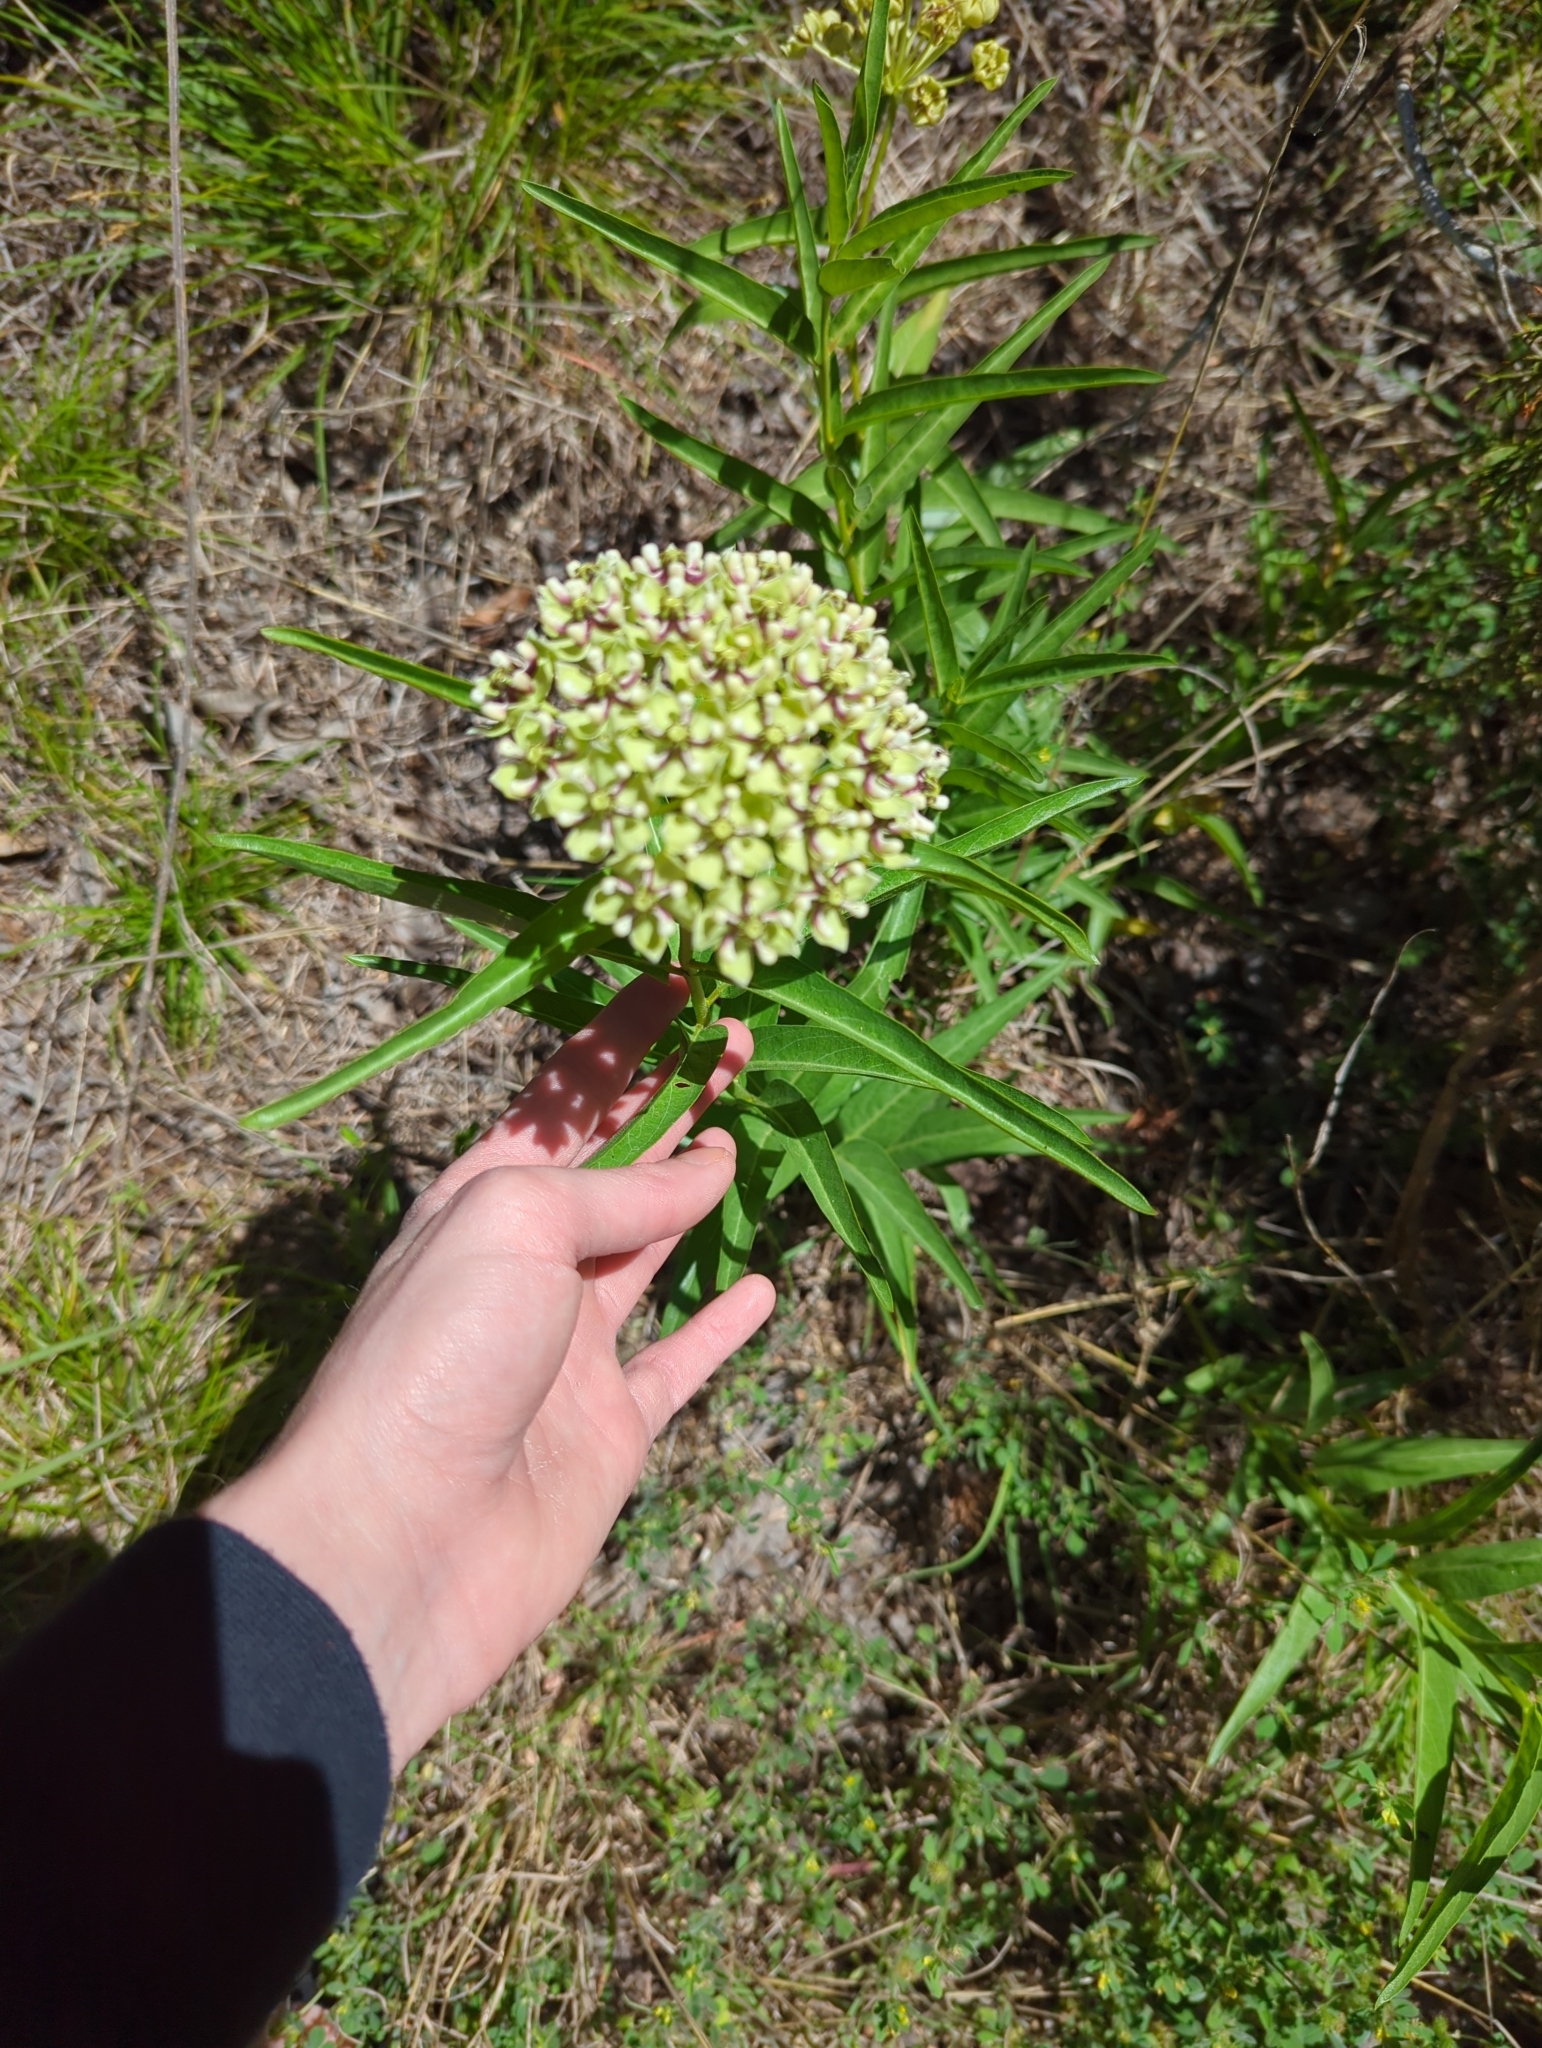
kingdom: Plantae
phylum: Tracheophyta
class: Magnoliopsida
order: Gentianales
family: Apocynaceae
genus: Asclepias
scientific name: Asclepias asperula
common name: Antelope horns
